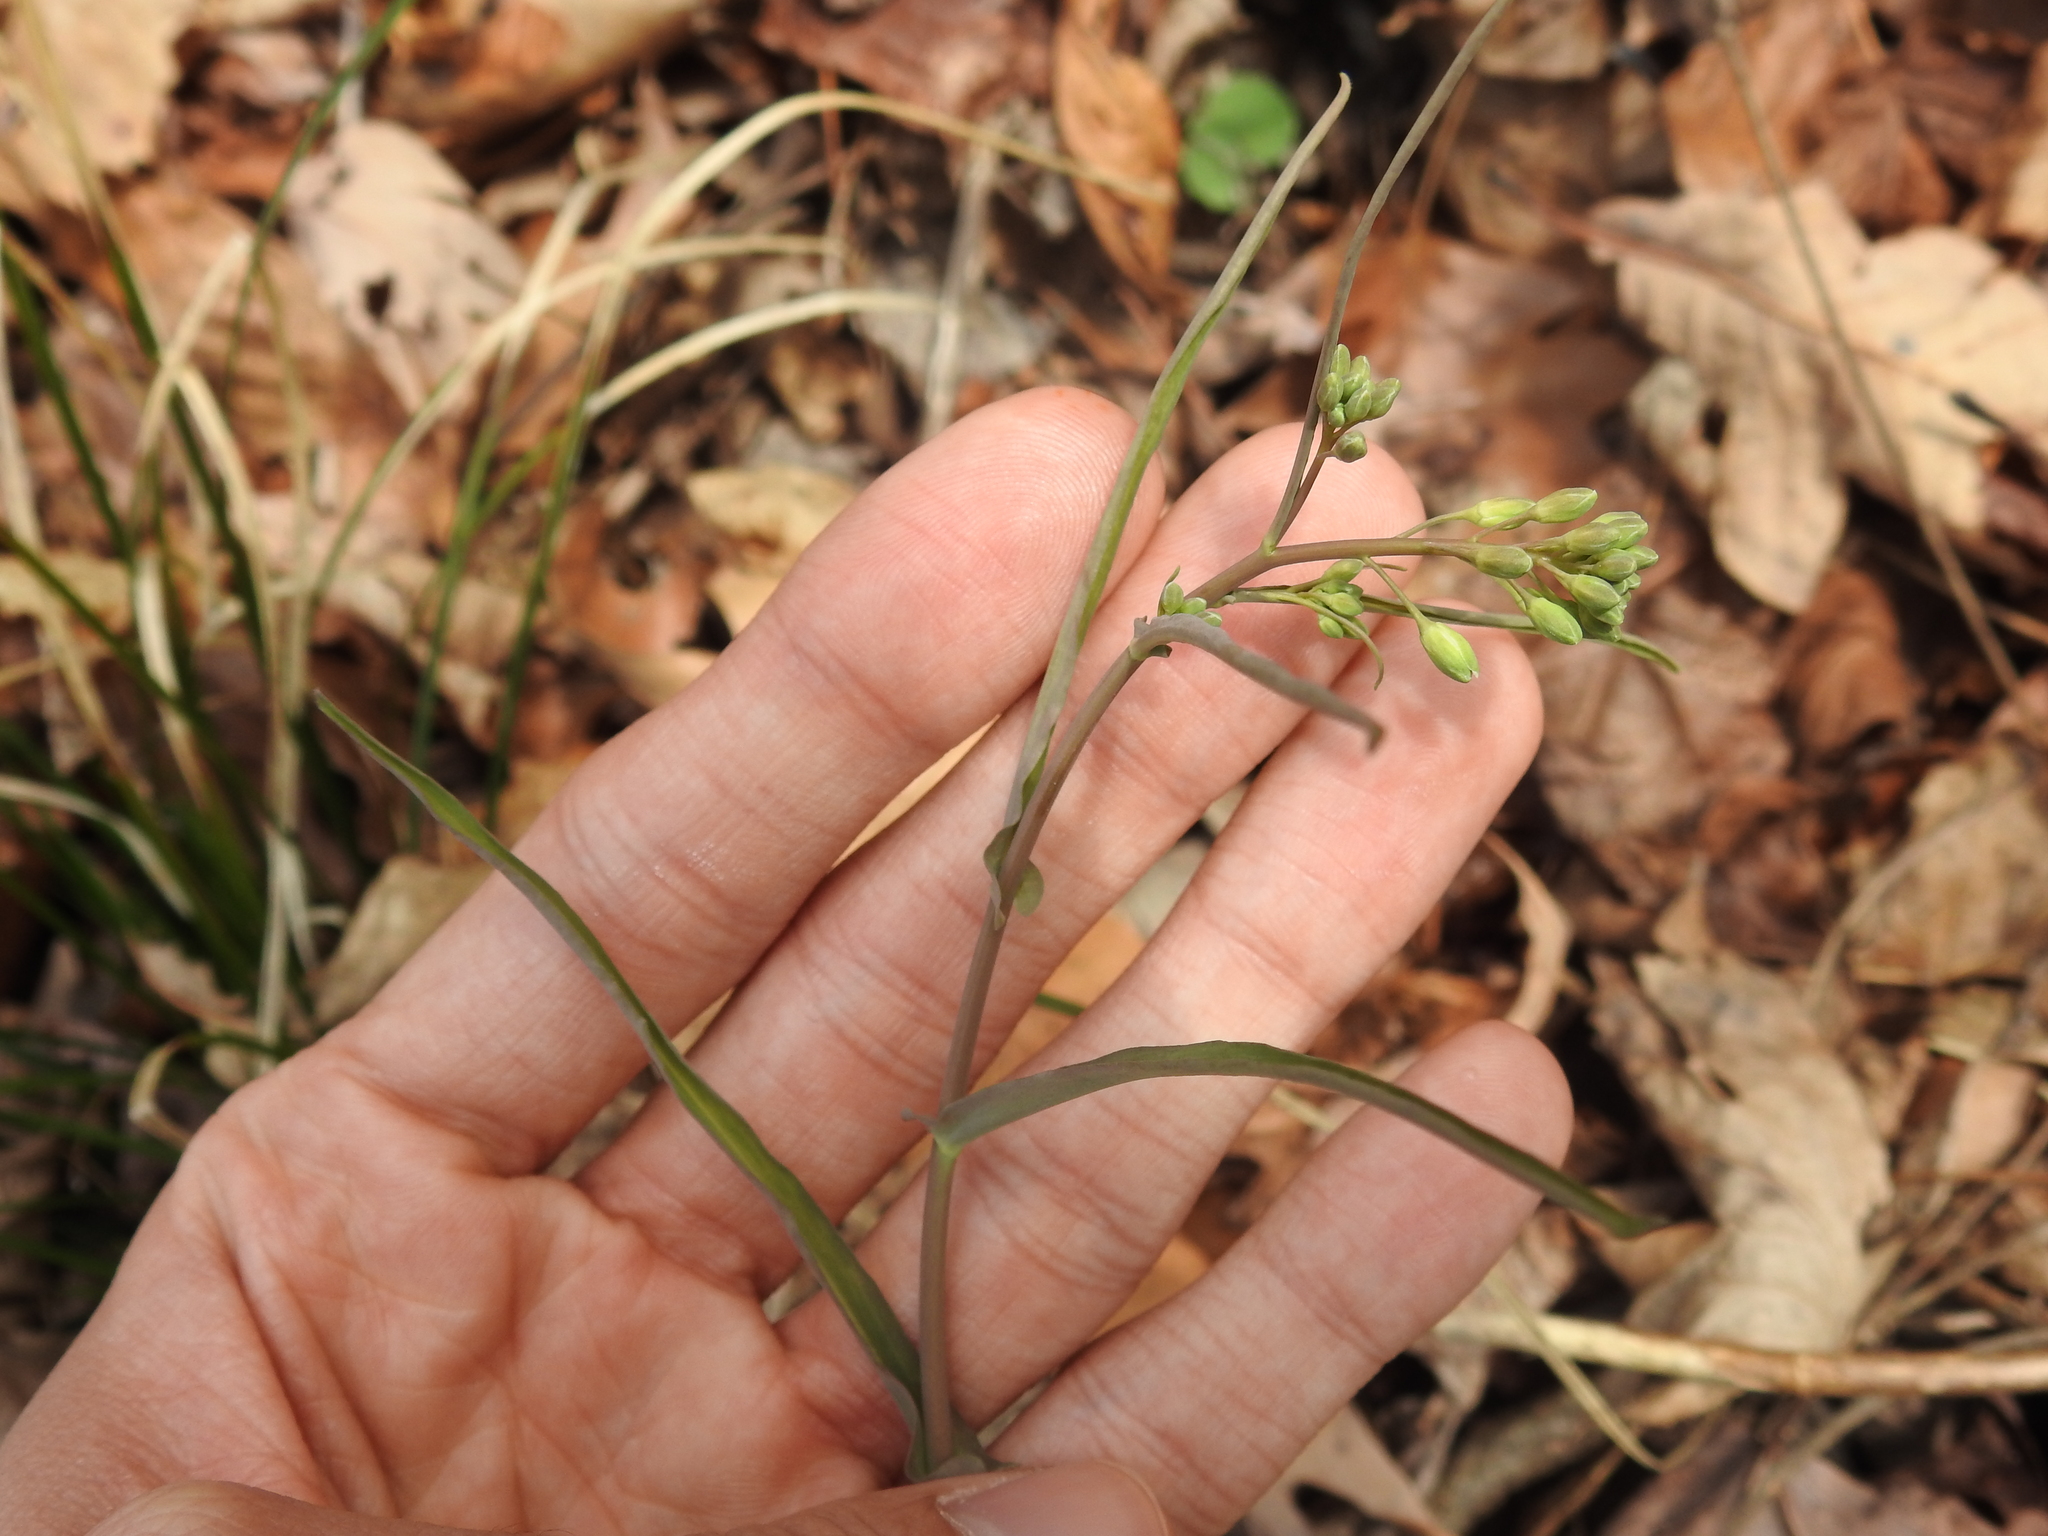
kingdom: Plantae
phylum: Tracheophyta
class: Magnoliopsida
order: Brassicales
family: Brassicaceae
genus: Borodinia
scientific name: Borodinia laevigata
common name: Smooth rockcress
